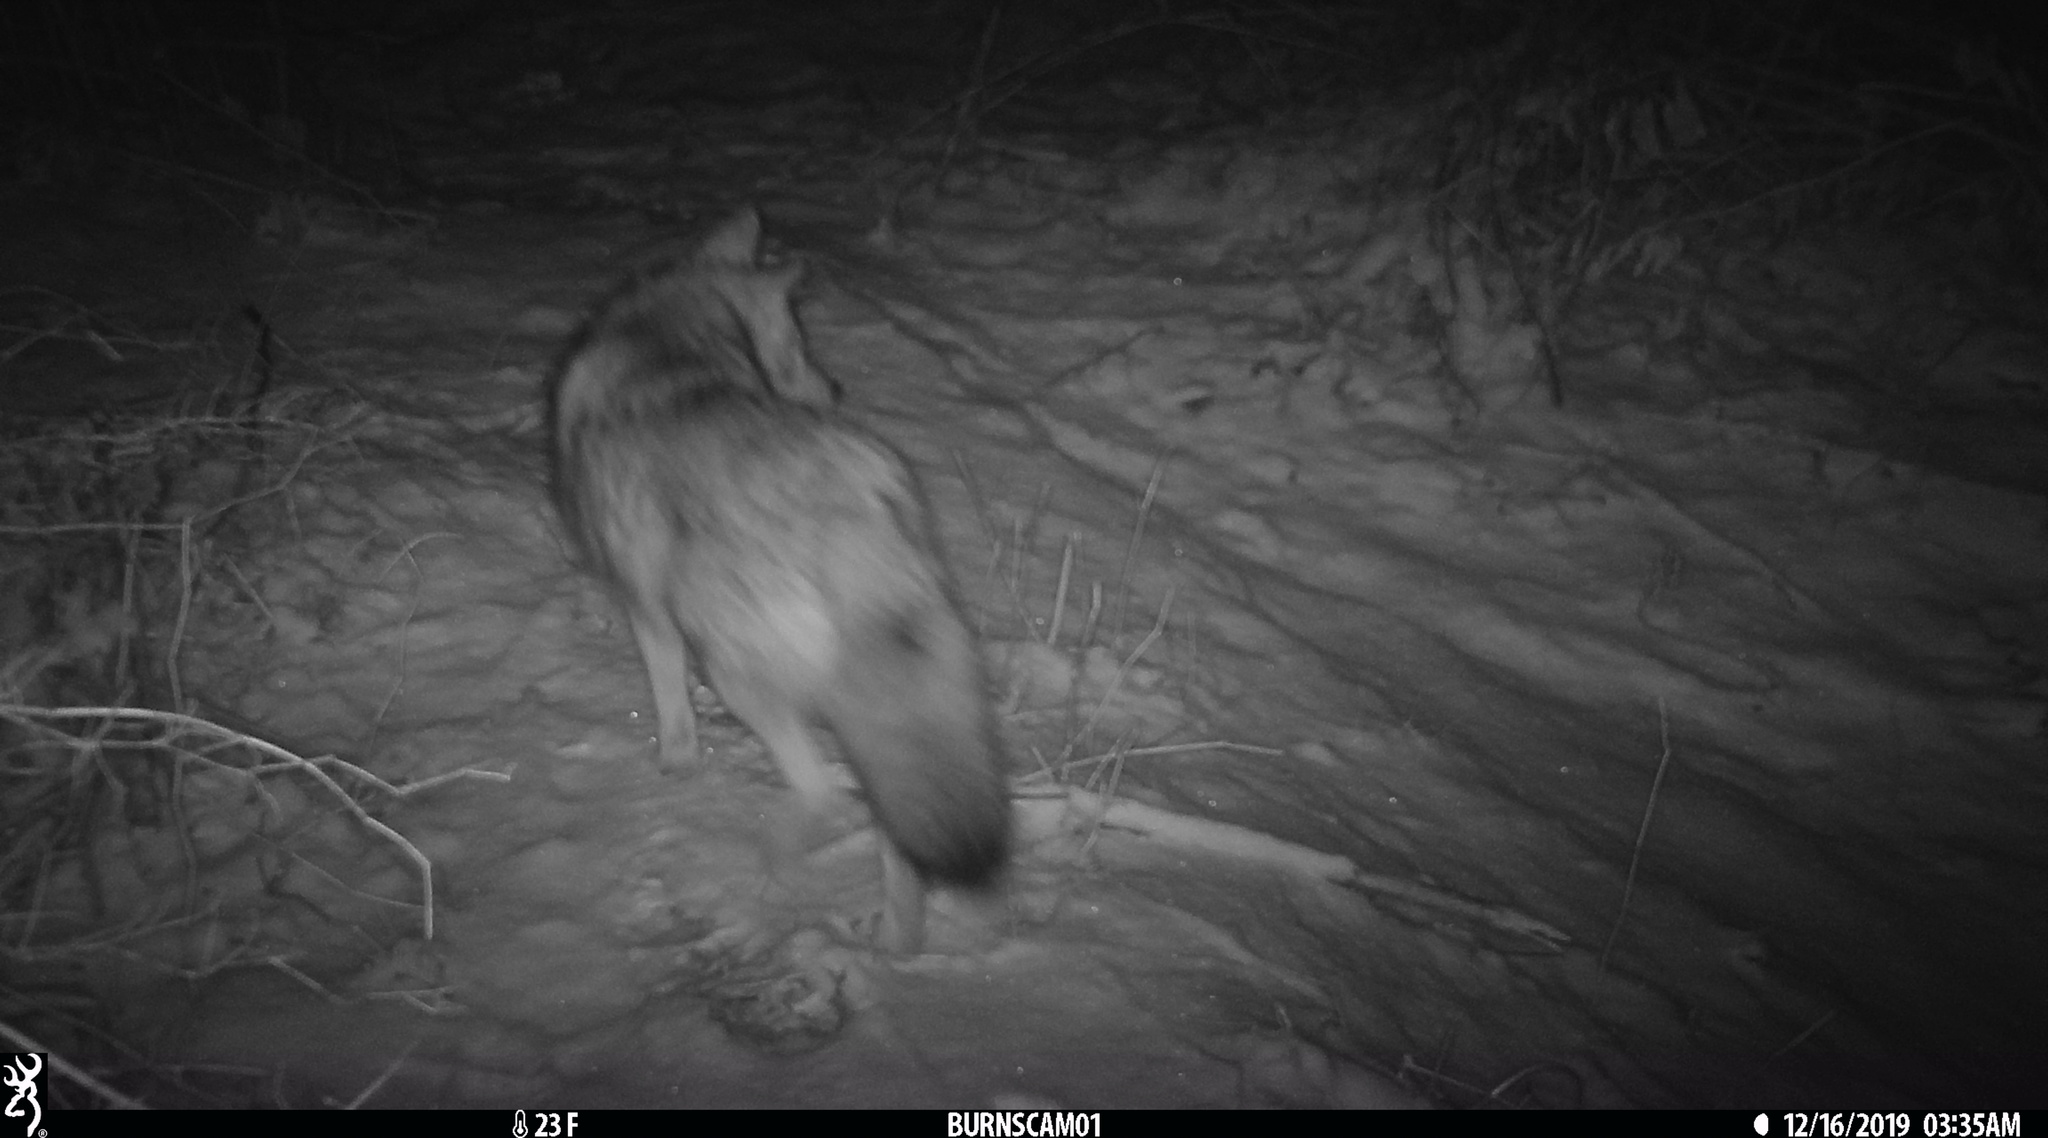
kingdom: Animalia
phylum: Chordata
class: Mammalia
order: Carnivora
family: Canidae
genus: Canis
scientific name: Canis latrans
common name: Coyote
